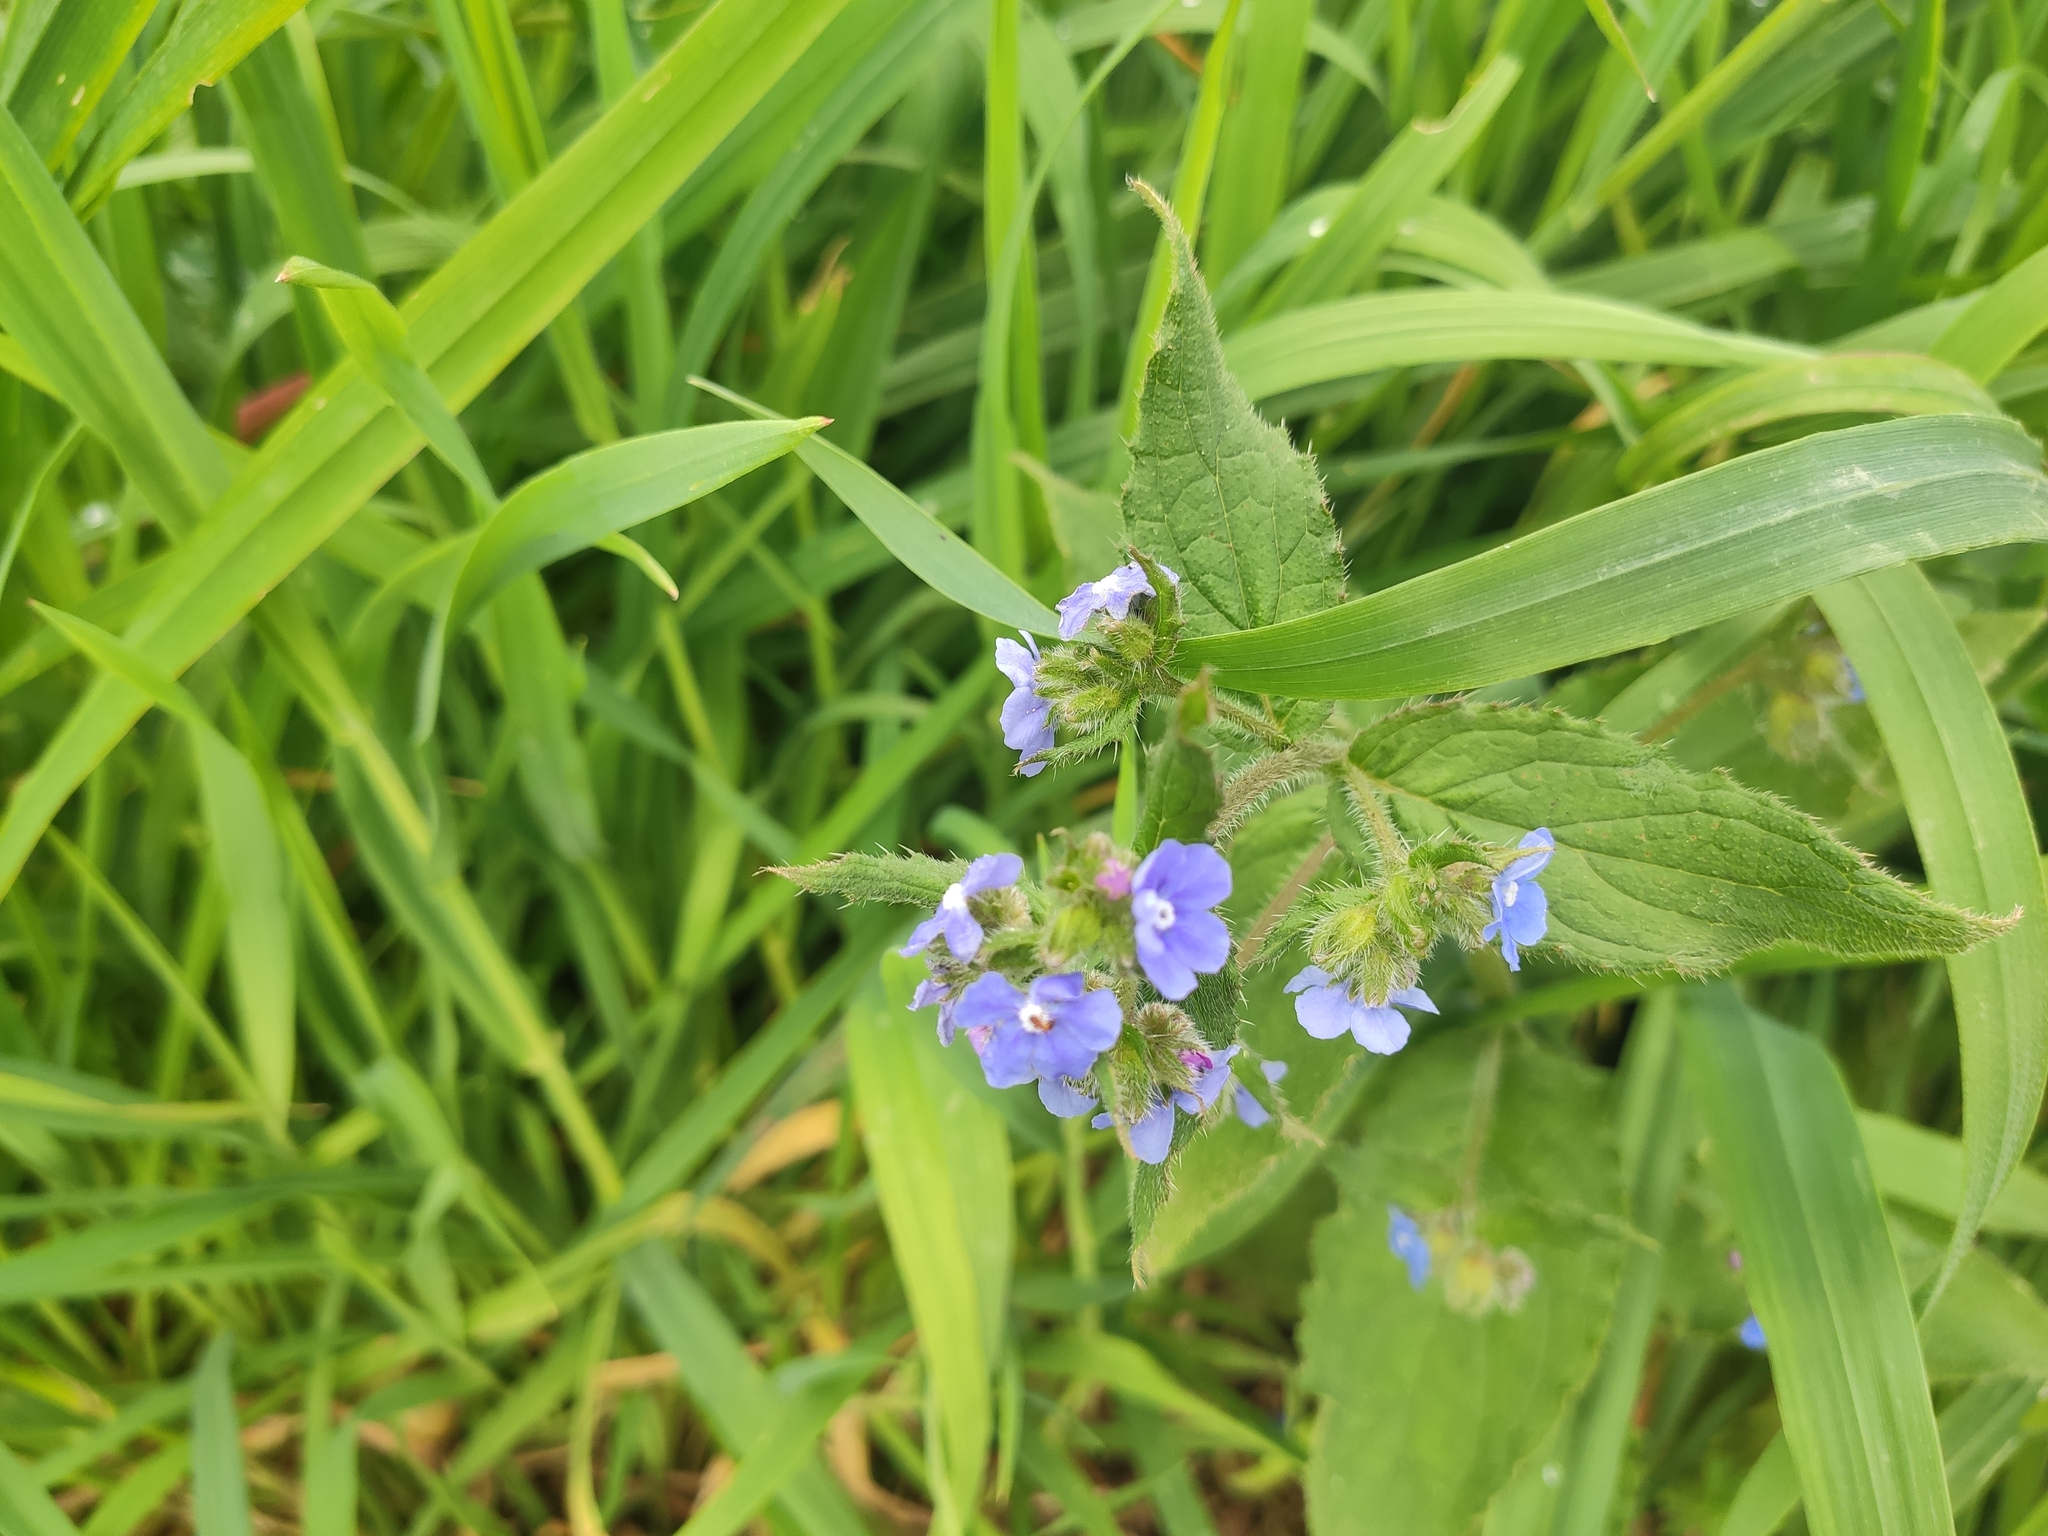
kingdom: Plantae
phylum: Tracheophyta
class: Magnoliopsida
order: Boraginales
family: Boraginaceae
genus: Pentaglottis
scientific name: Pentaglottis sempervirens
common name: Green alkanet
